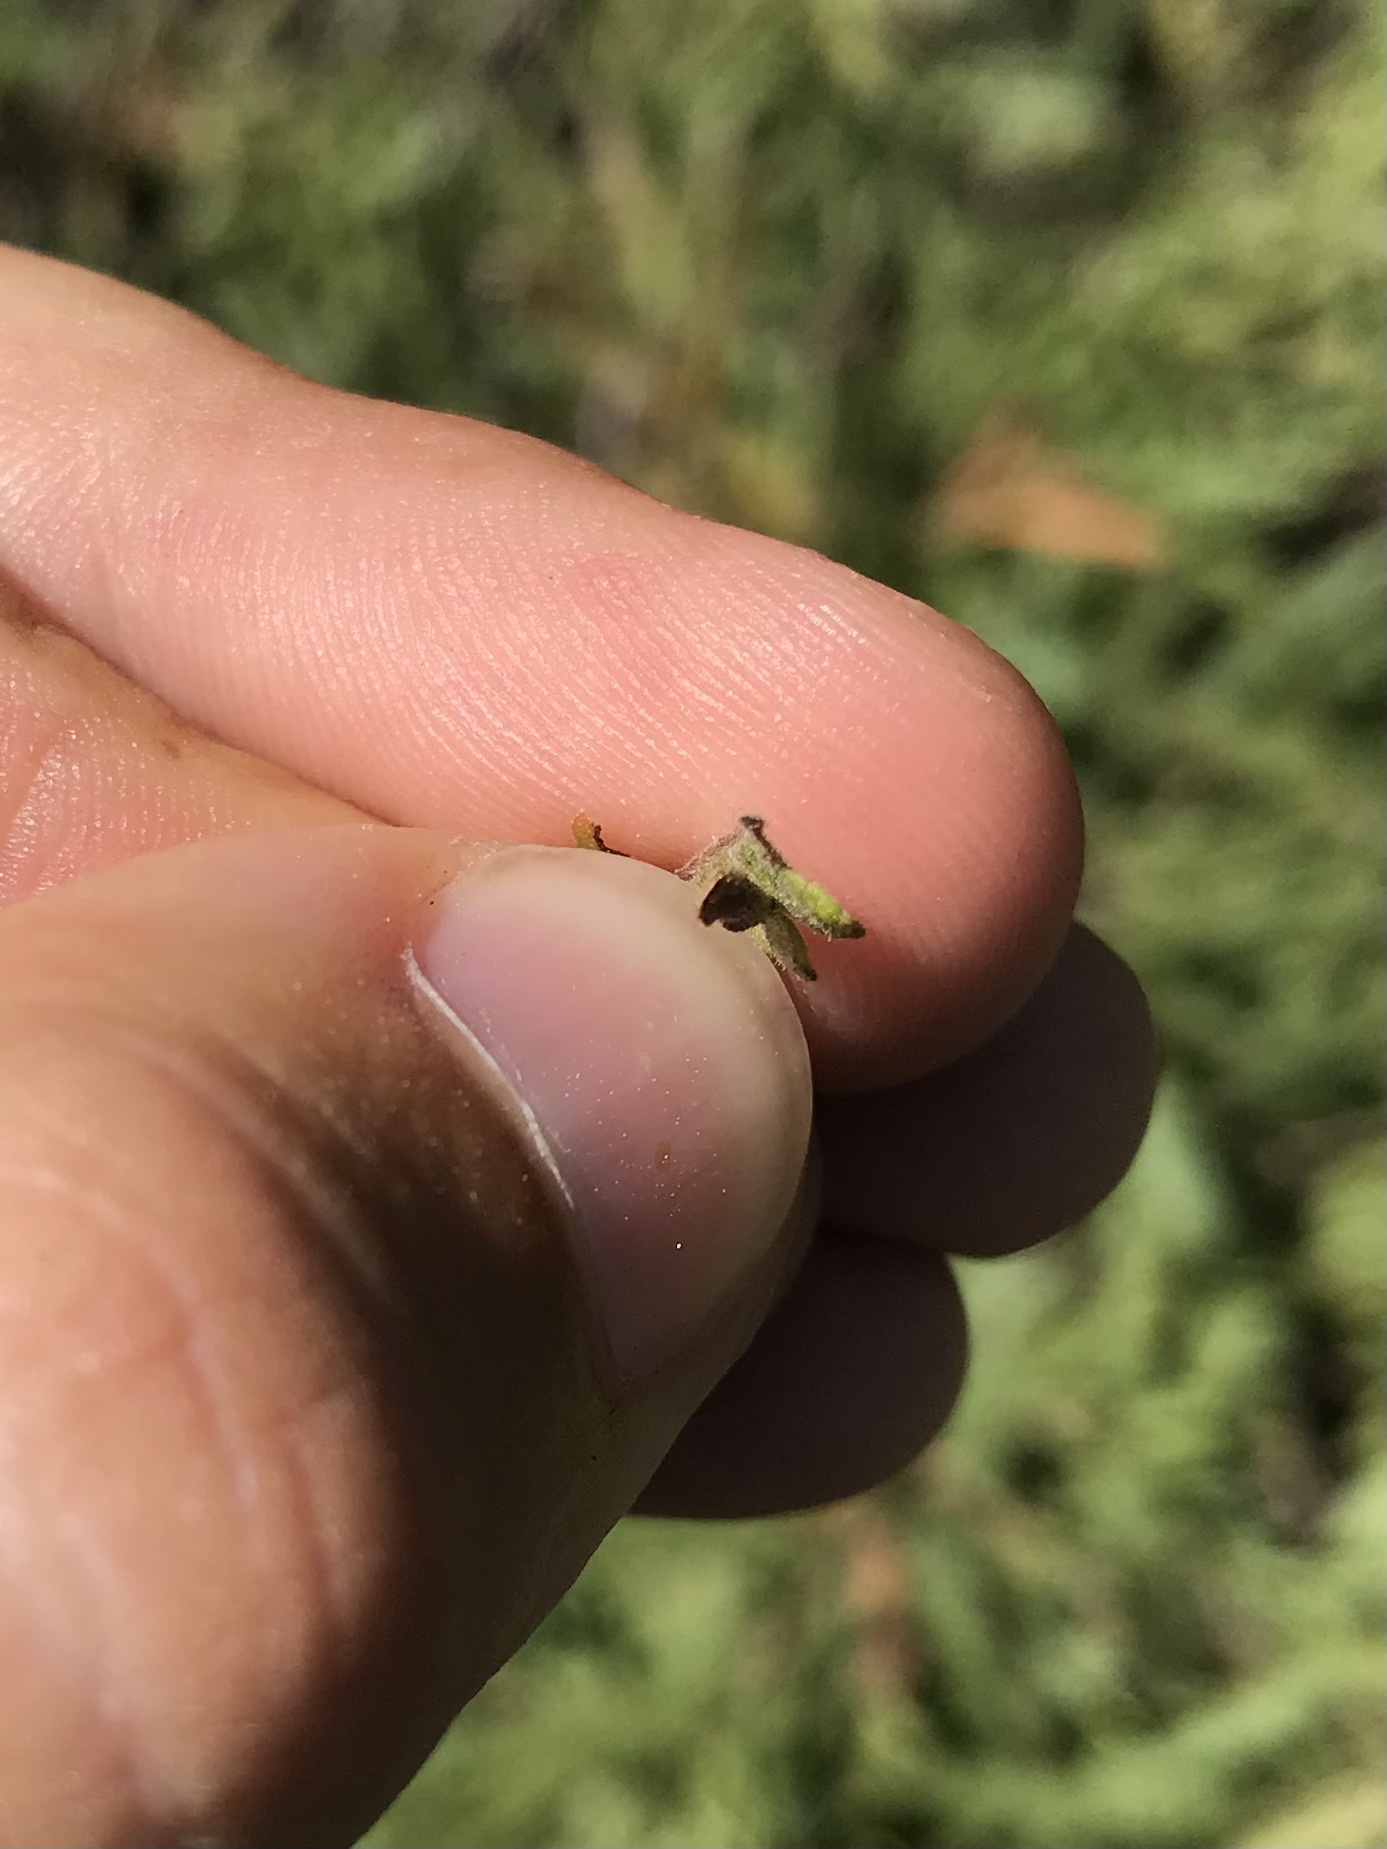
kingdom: Animalia
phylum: Arthropoda
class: Insecta
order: Lepidoptera
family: Coleophoridae
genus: Coleophora
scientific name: Coleophora comptoniella
